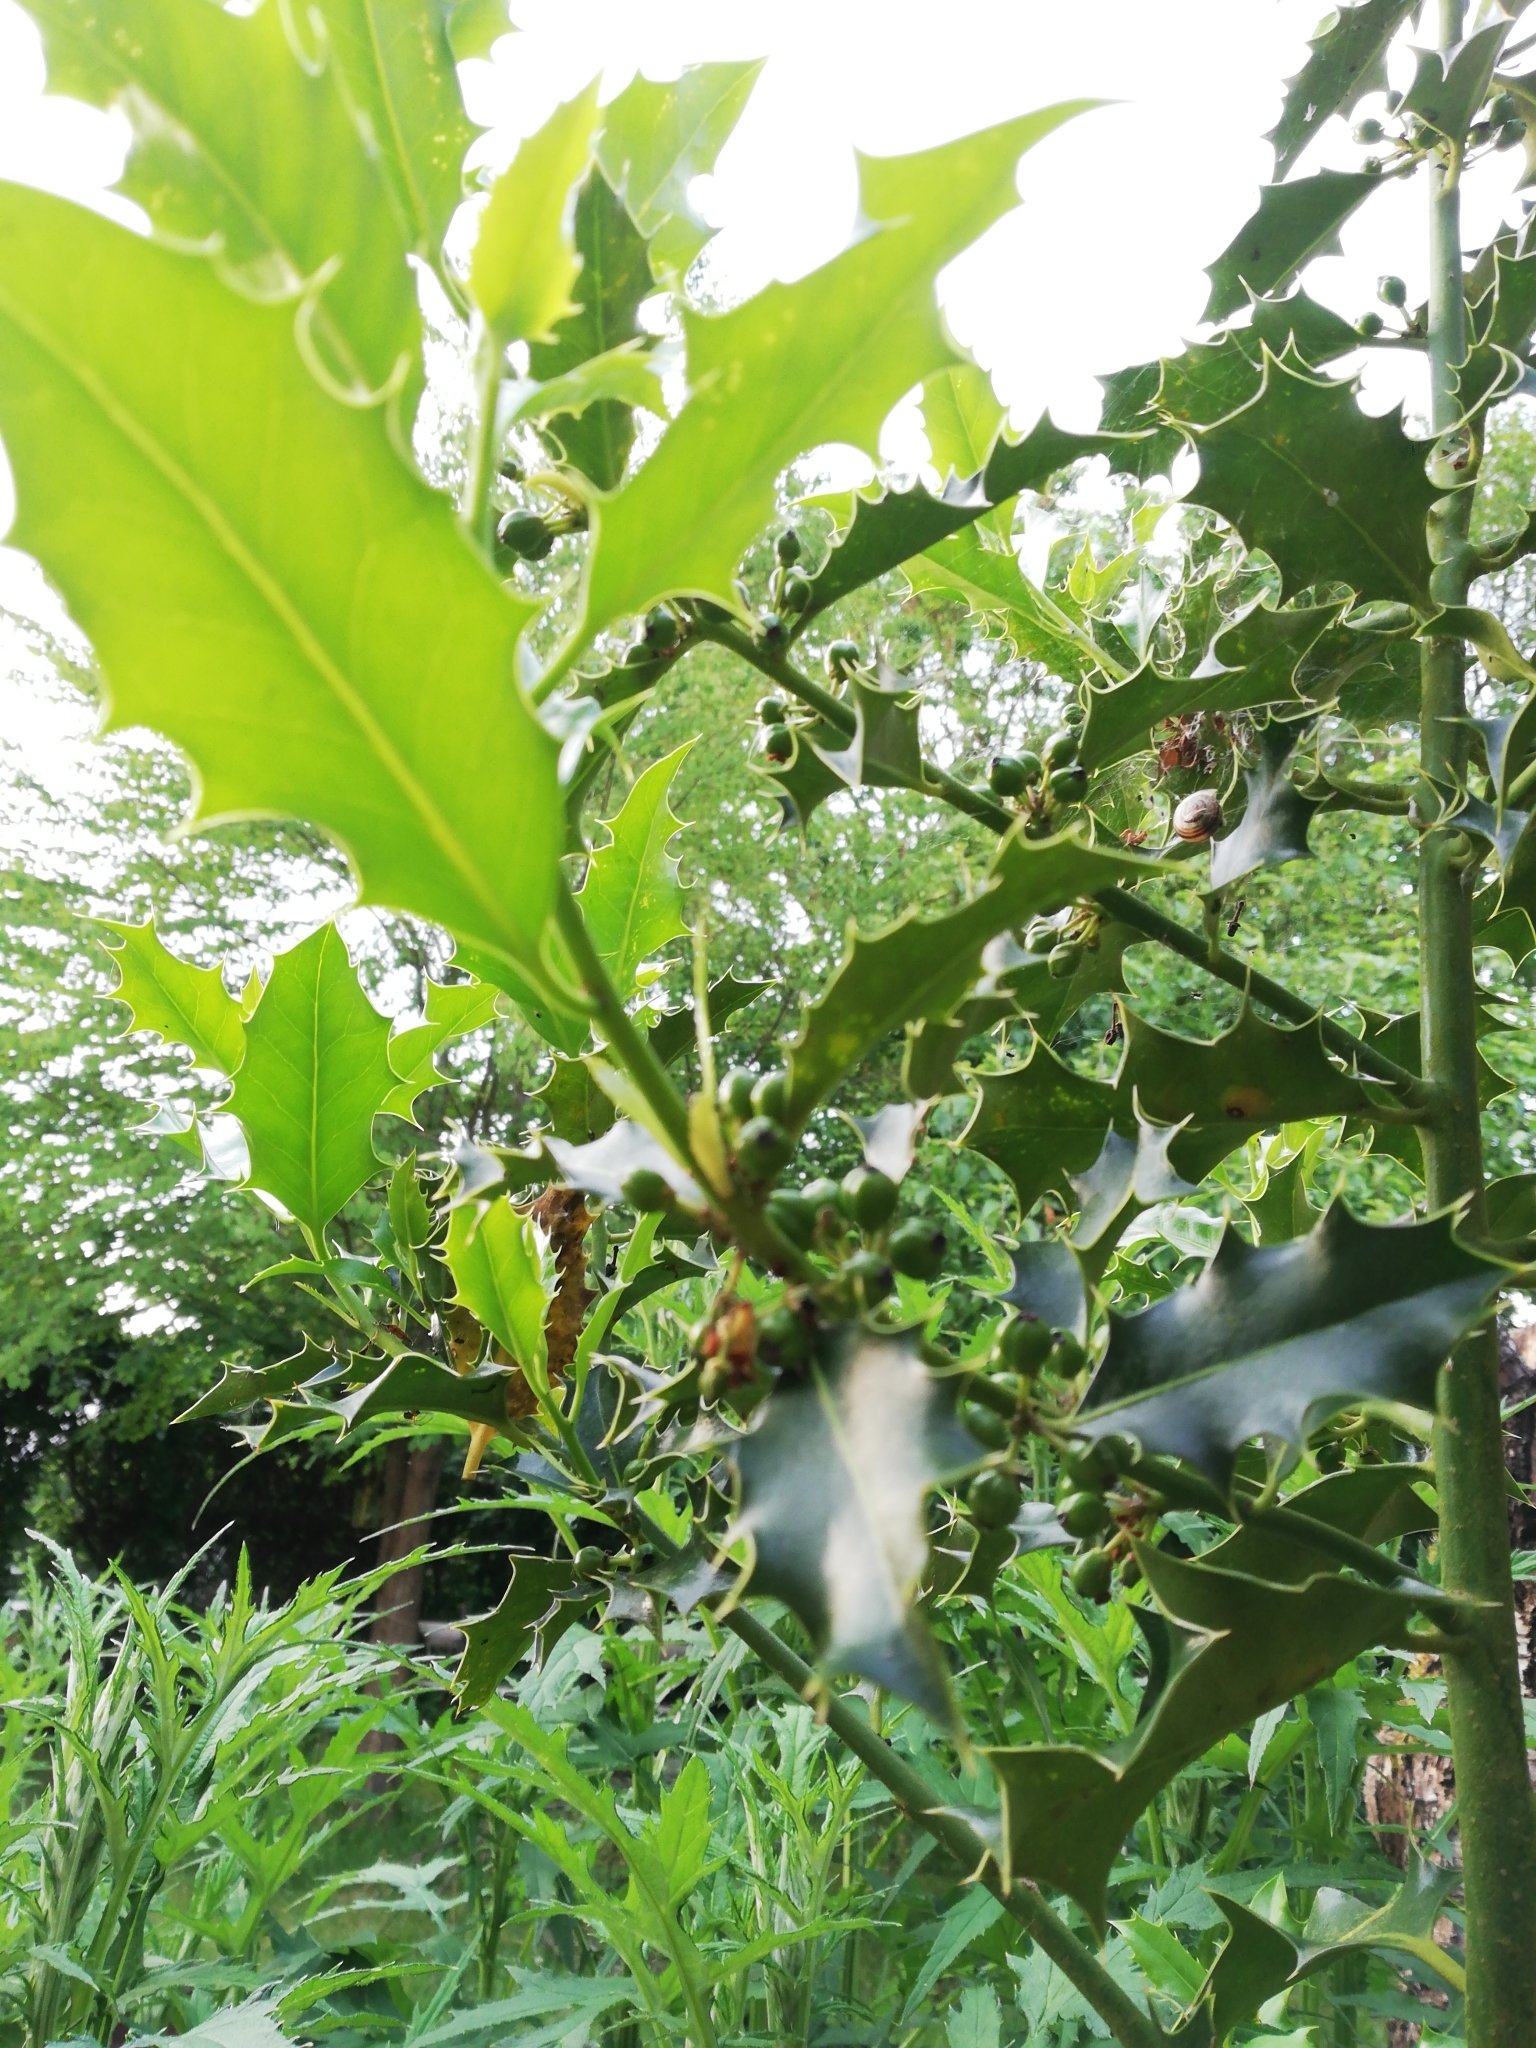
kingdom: Plantae
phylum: Tracheophyta
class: Magnoliopsida
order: Aquifoliales
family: Aquifoliaceae
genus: Ilex
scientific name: Ilex aquifolium
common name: English holly
